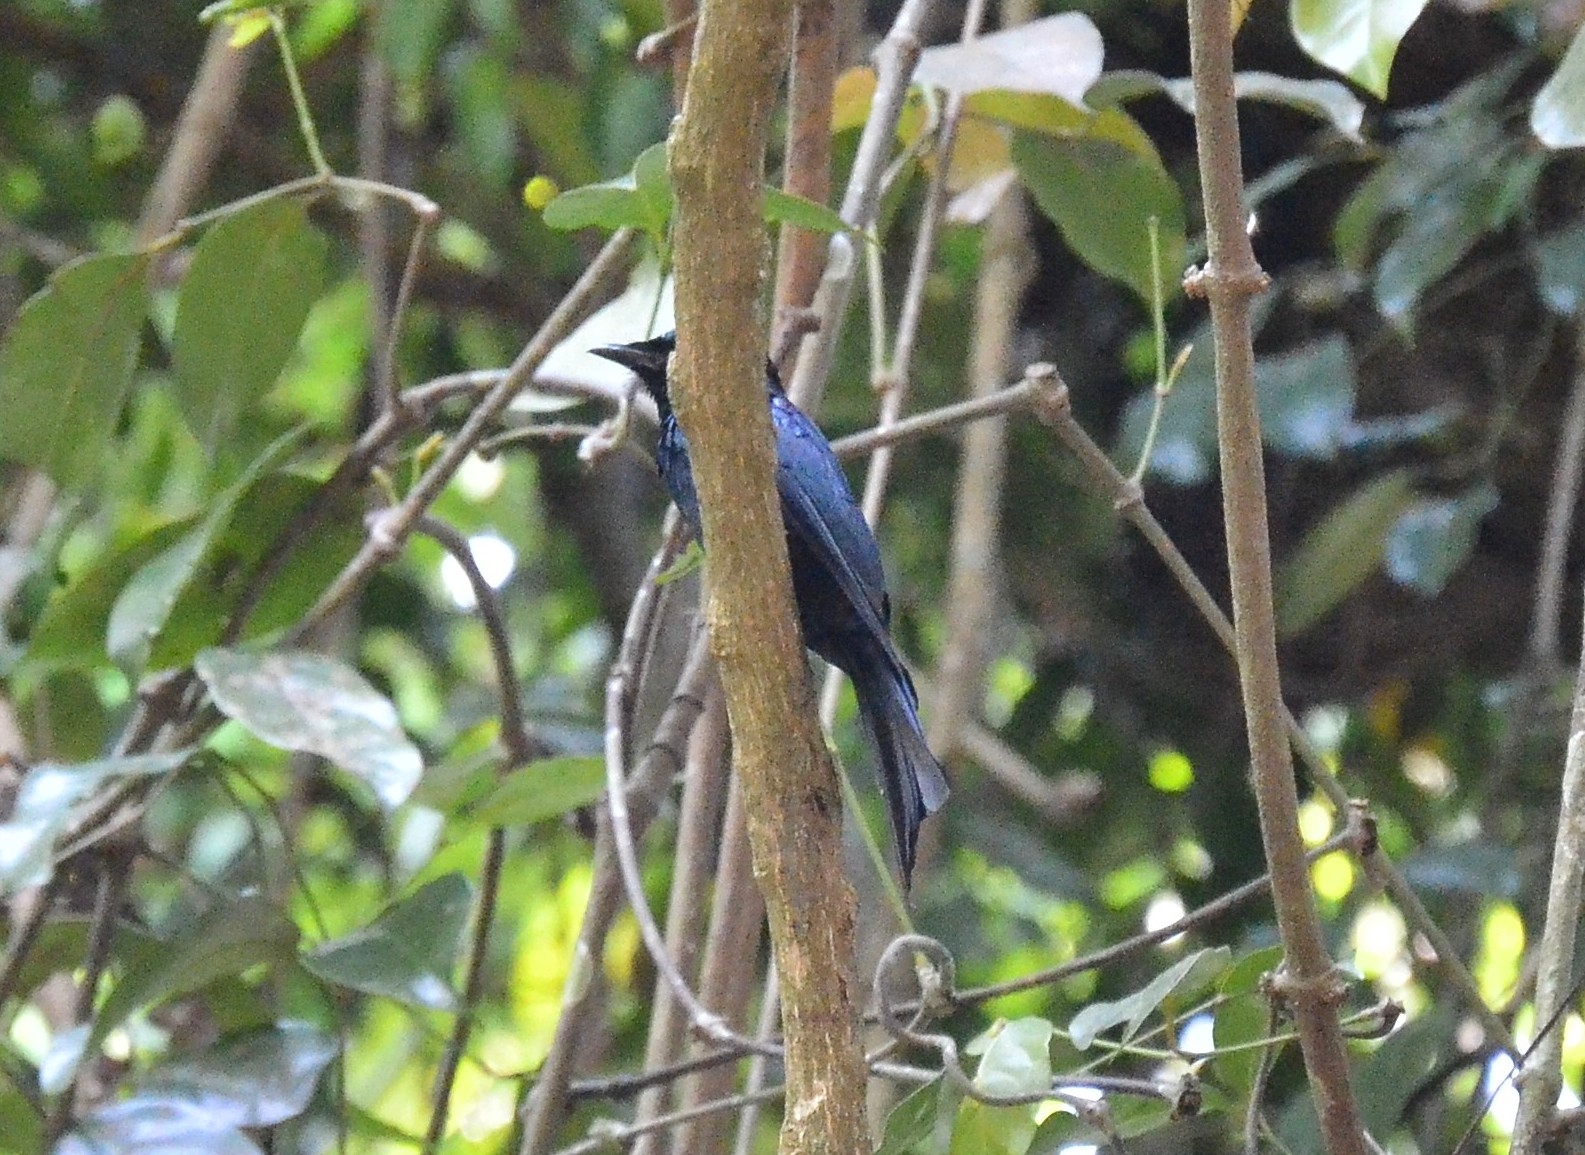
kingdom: Animalia
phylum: Chordata
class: Aves
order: Passeriformes
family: Dicruridae
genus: Dicrurus
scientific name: Dicrurus aeneus
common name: Bronzed drongo
